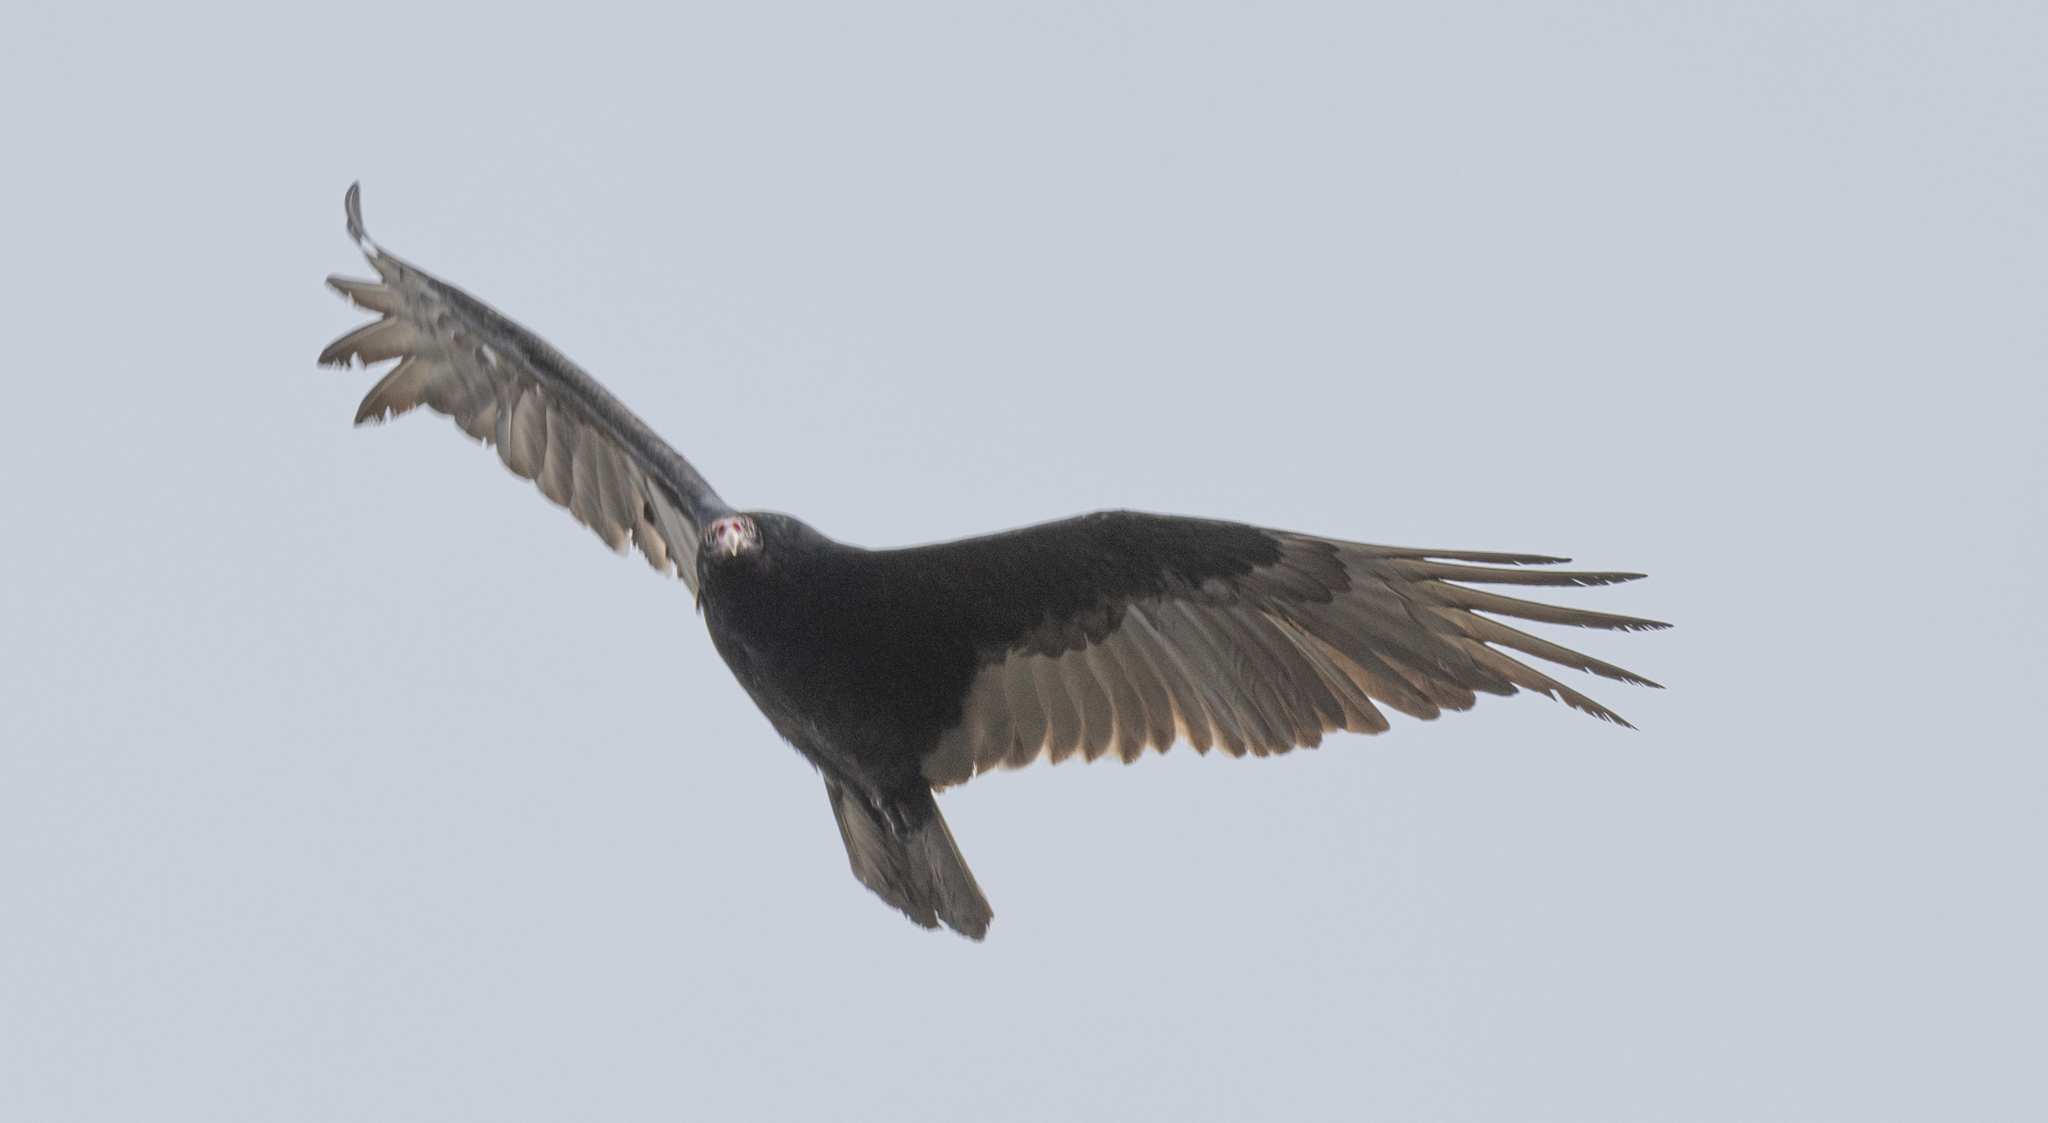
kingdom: Animalia
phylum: Chordata
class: Aves
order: Accipitriformes
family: Cathartidae
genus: Cathartes
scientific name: Cathartes aura
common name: Turkey vulture
